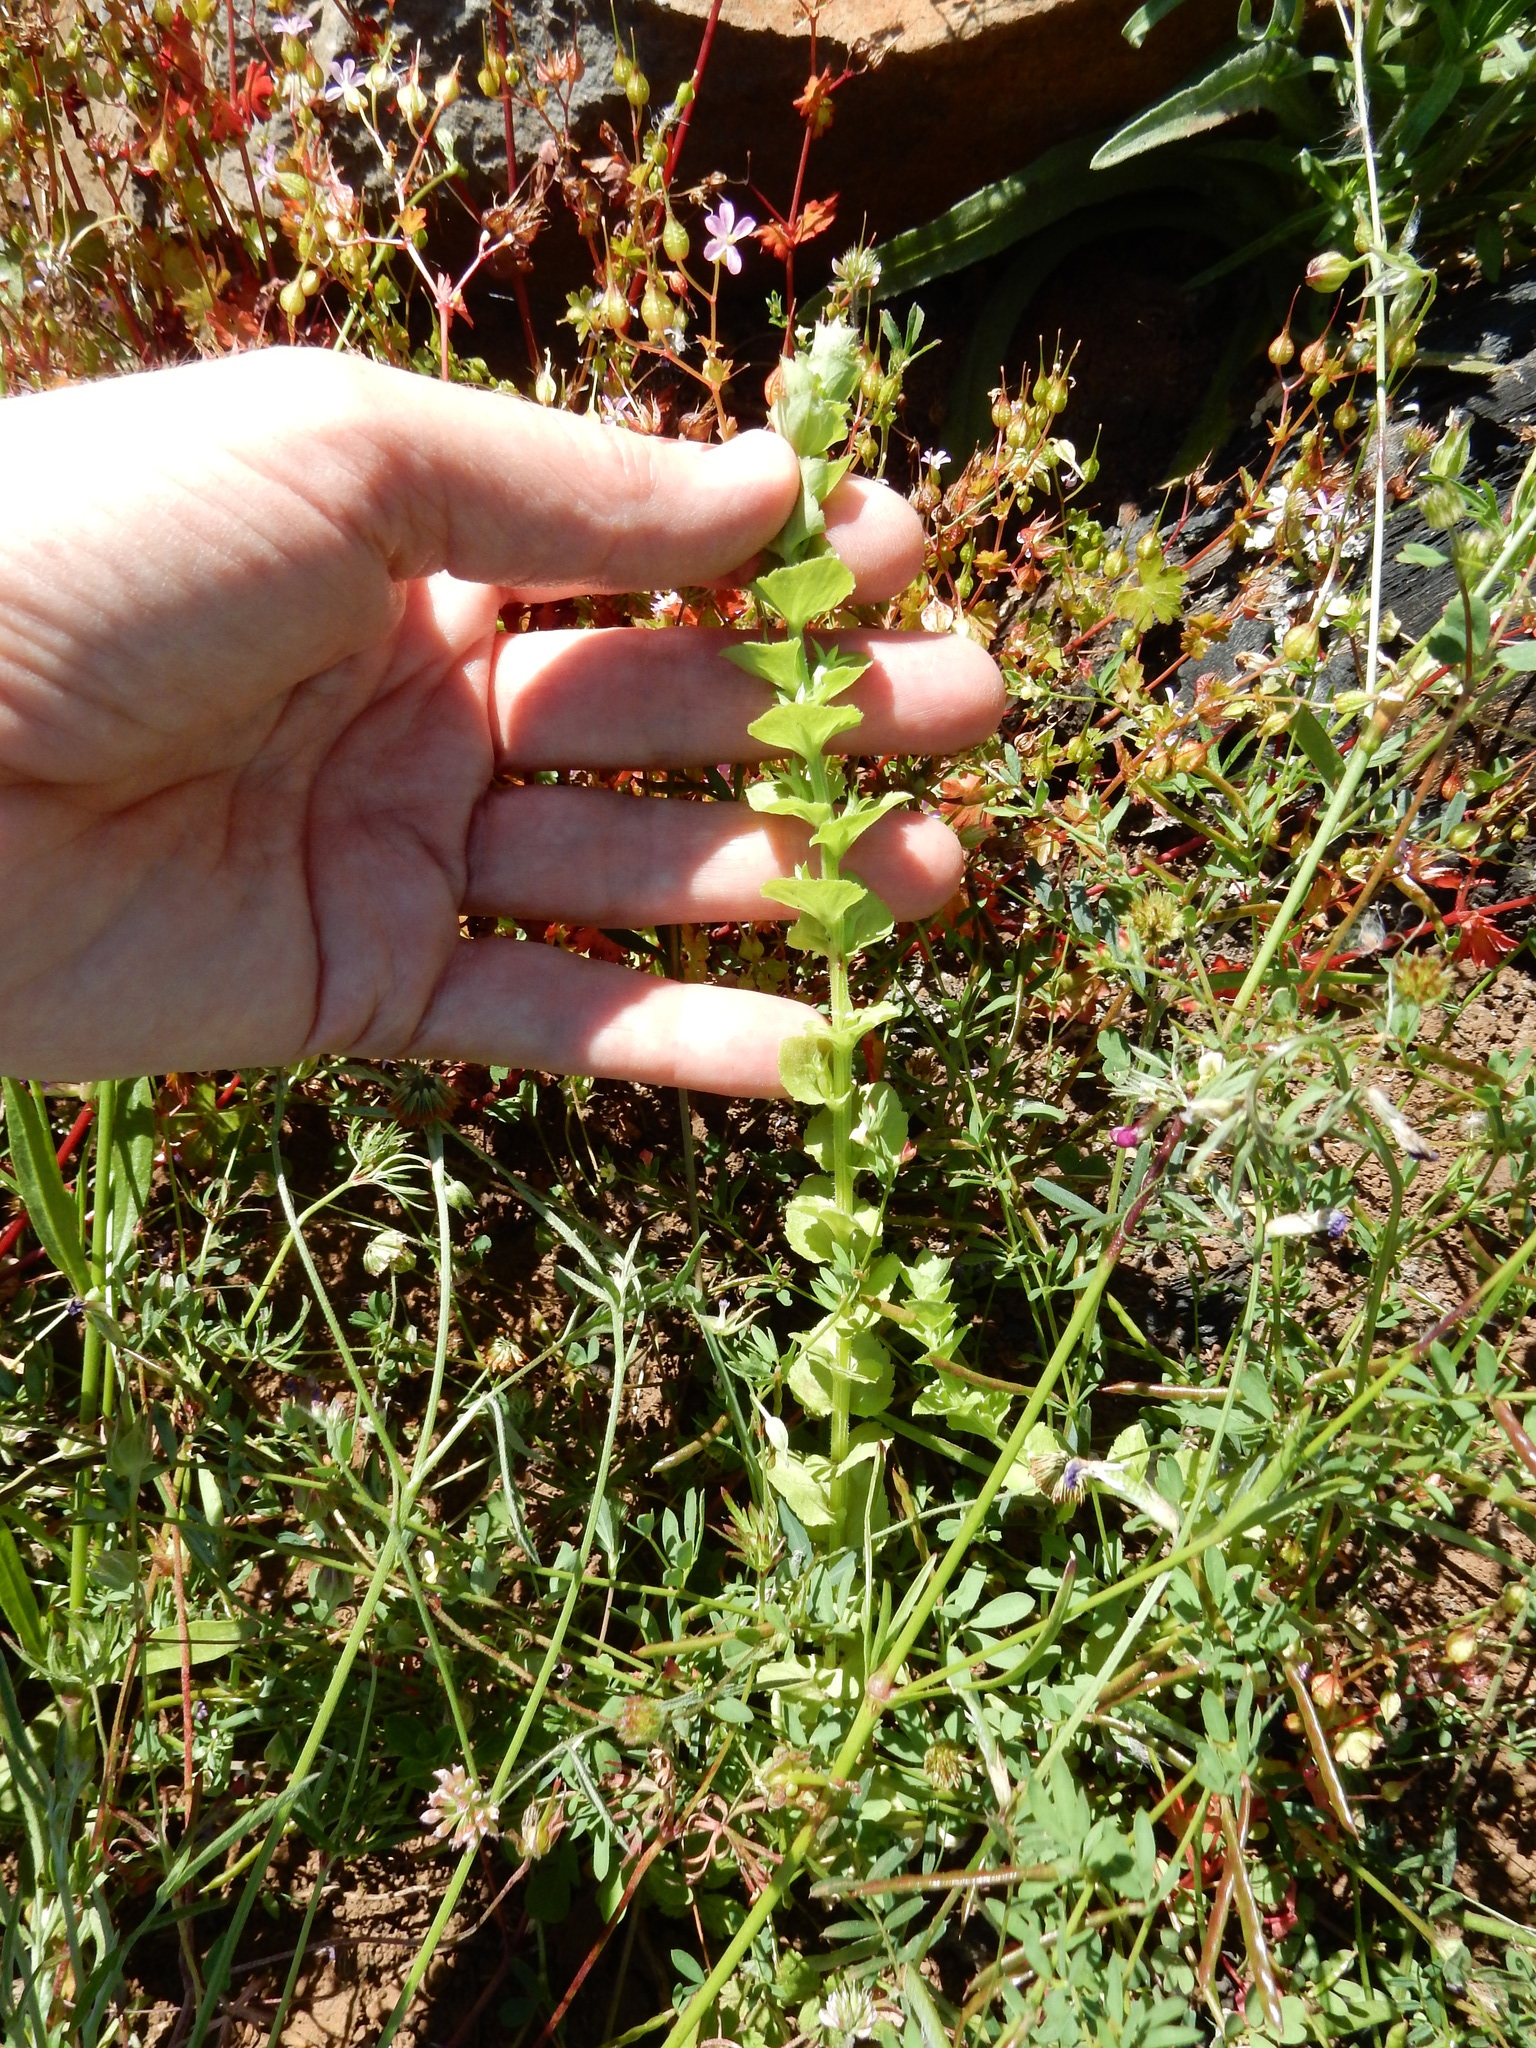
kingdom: Plantae
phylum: Tracheophyta
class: Magnoliopsida
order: Asterales
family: Campanulaceae
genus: Triodanis
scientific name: Triodanis perfoliata
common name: Clasping venus' looking-glass
